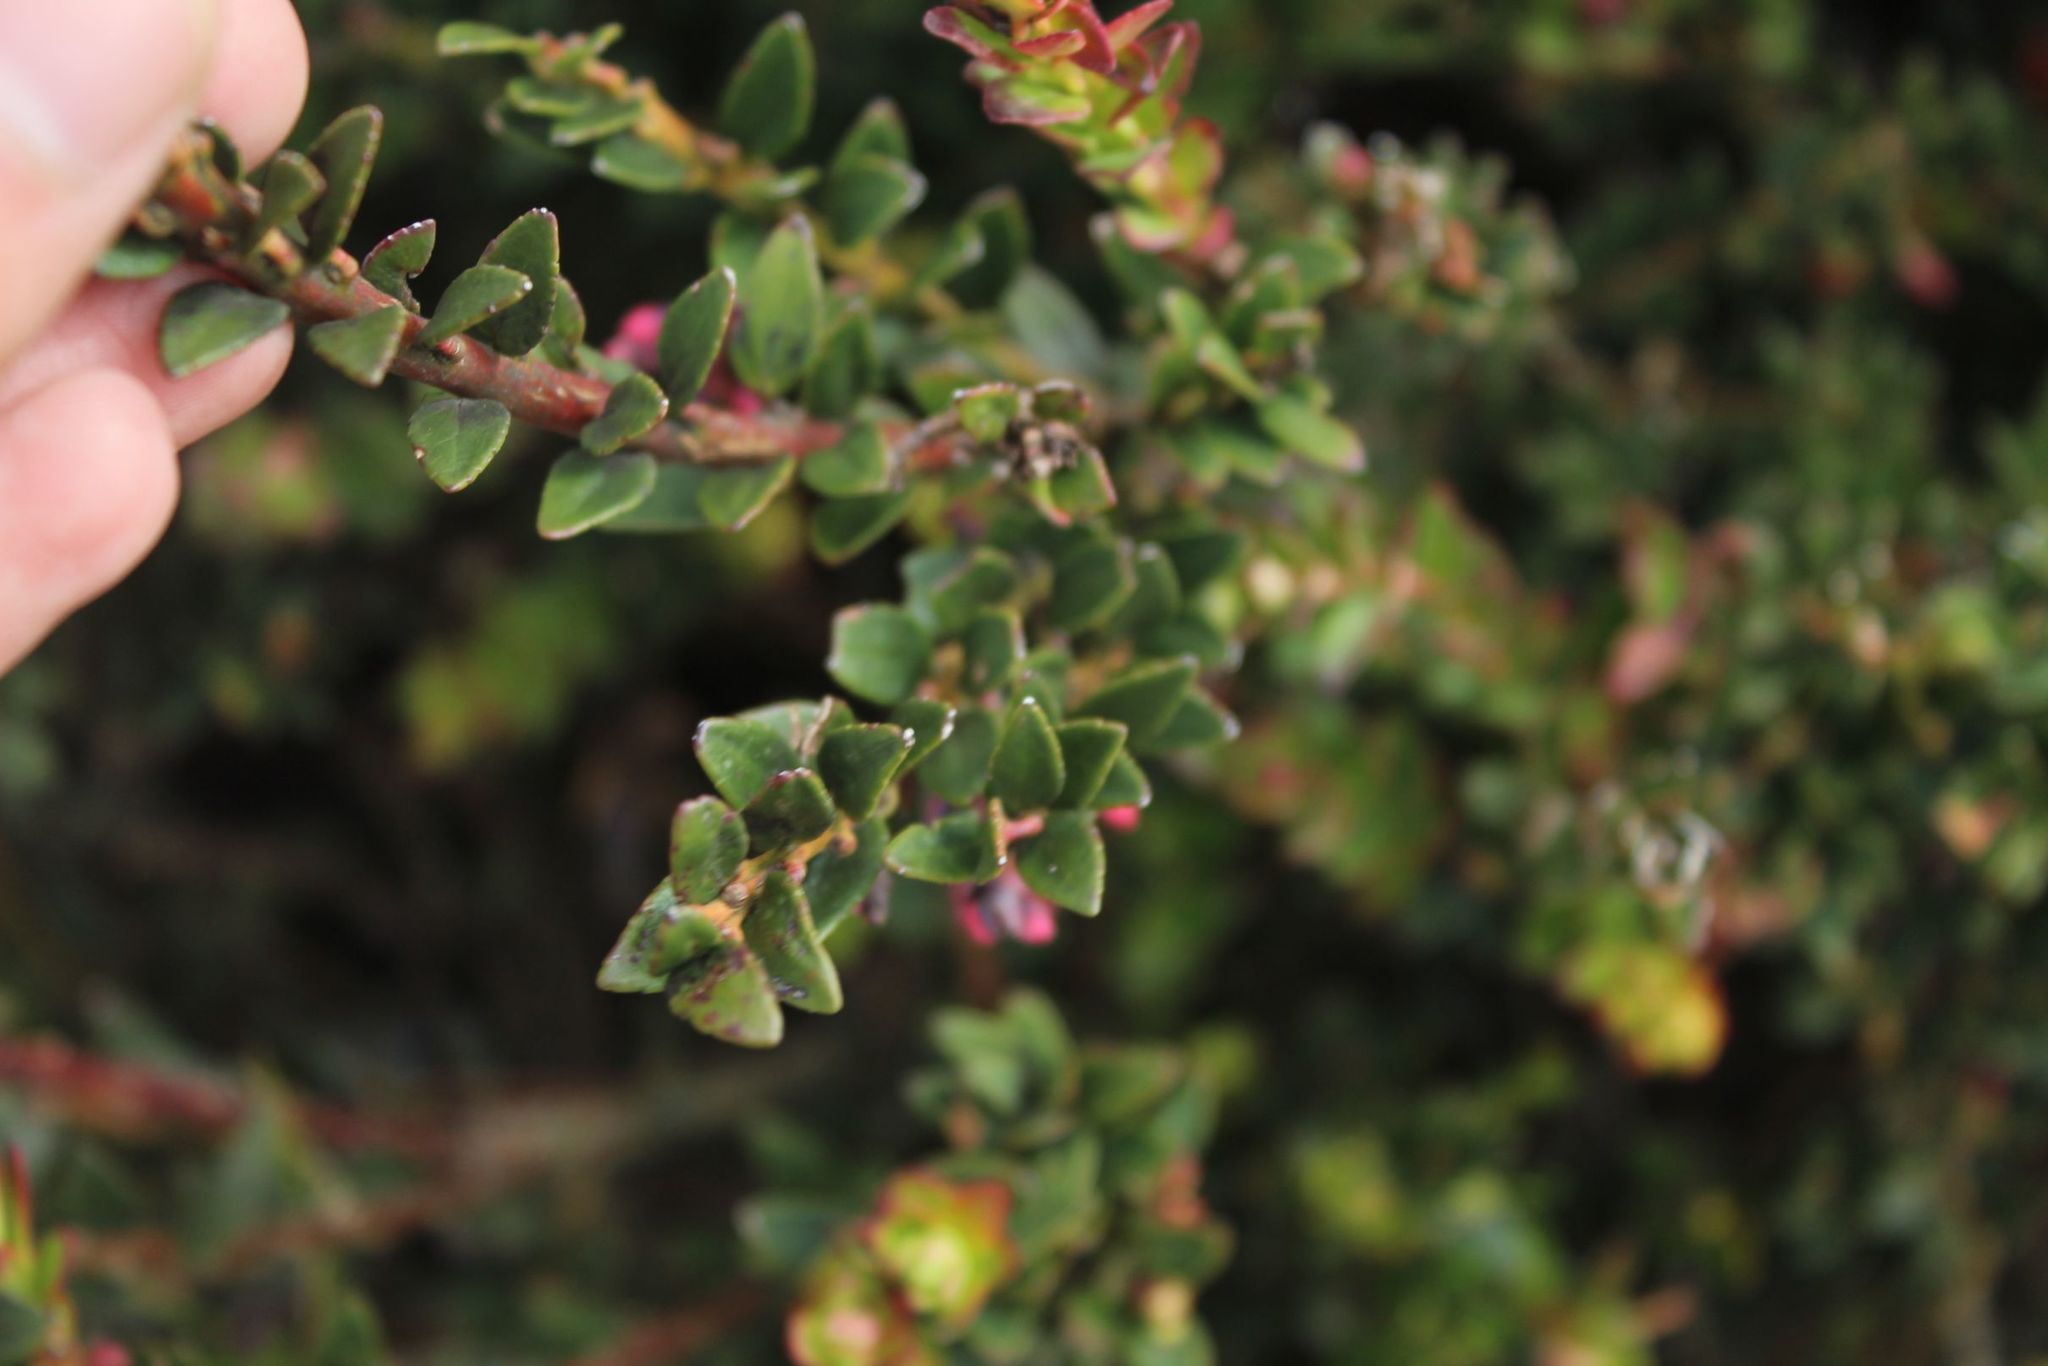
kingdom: Plantae
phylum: Tracheophyta
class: Magnoliopsida
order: Ericales
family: Ericaceae
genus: Vaccinium
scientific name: Vaccinium floribundum
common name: Colombian blueberry
